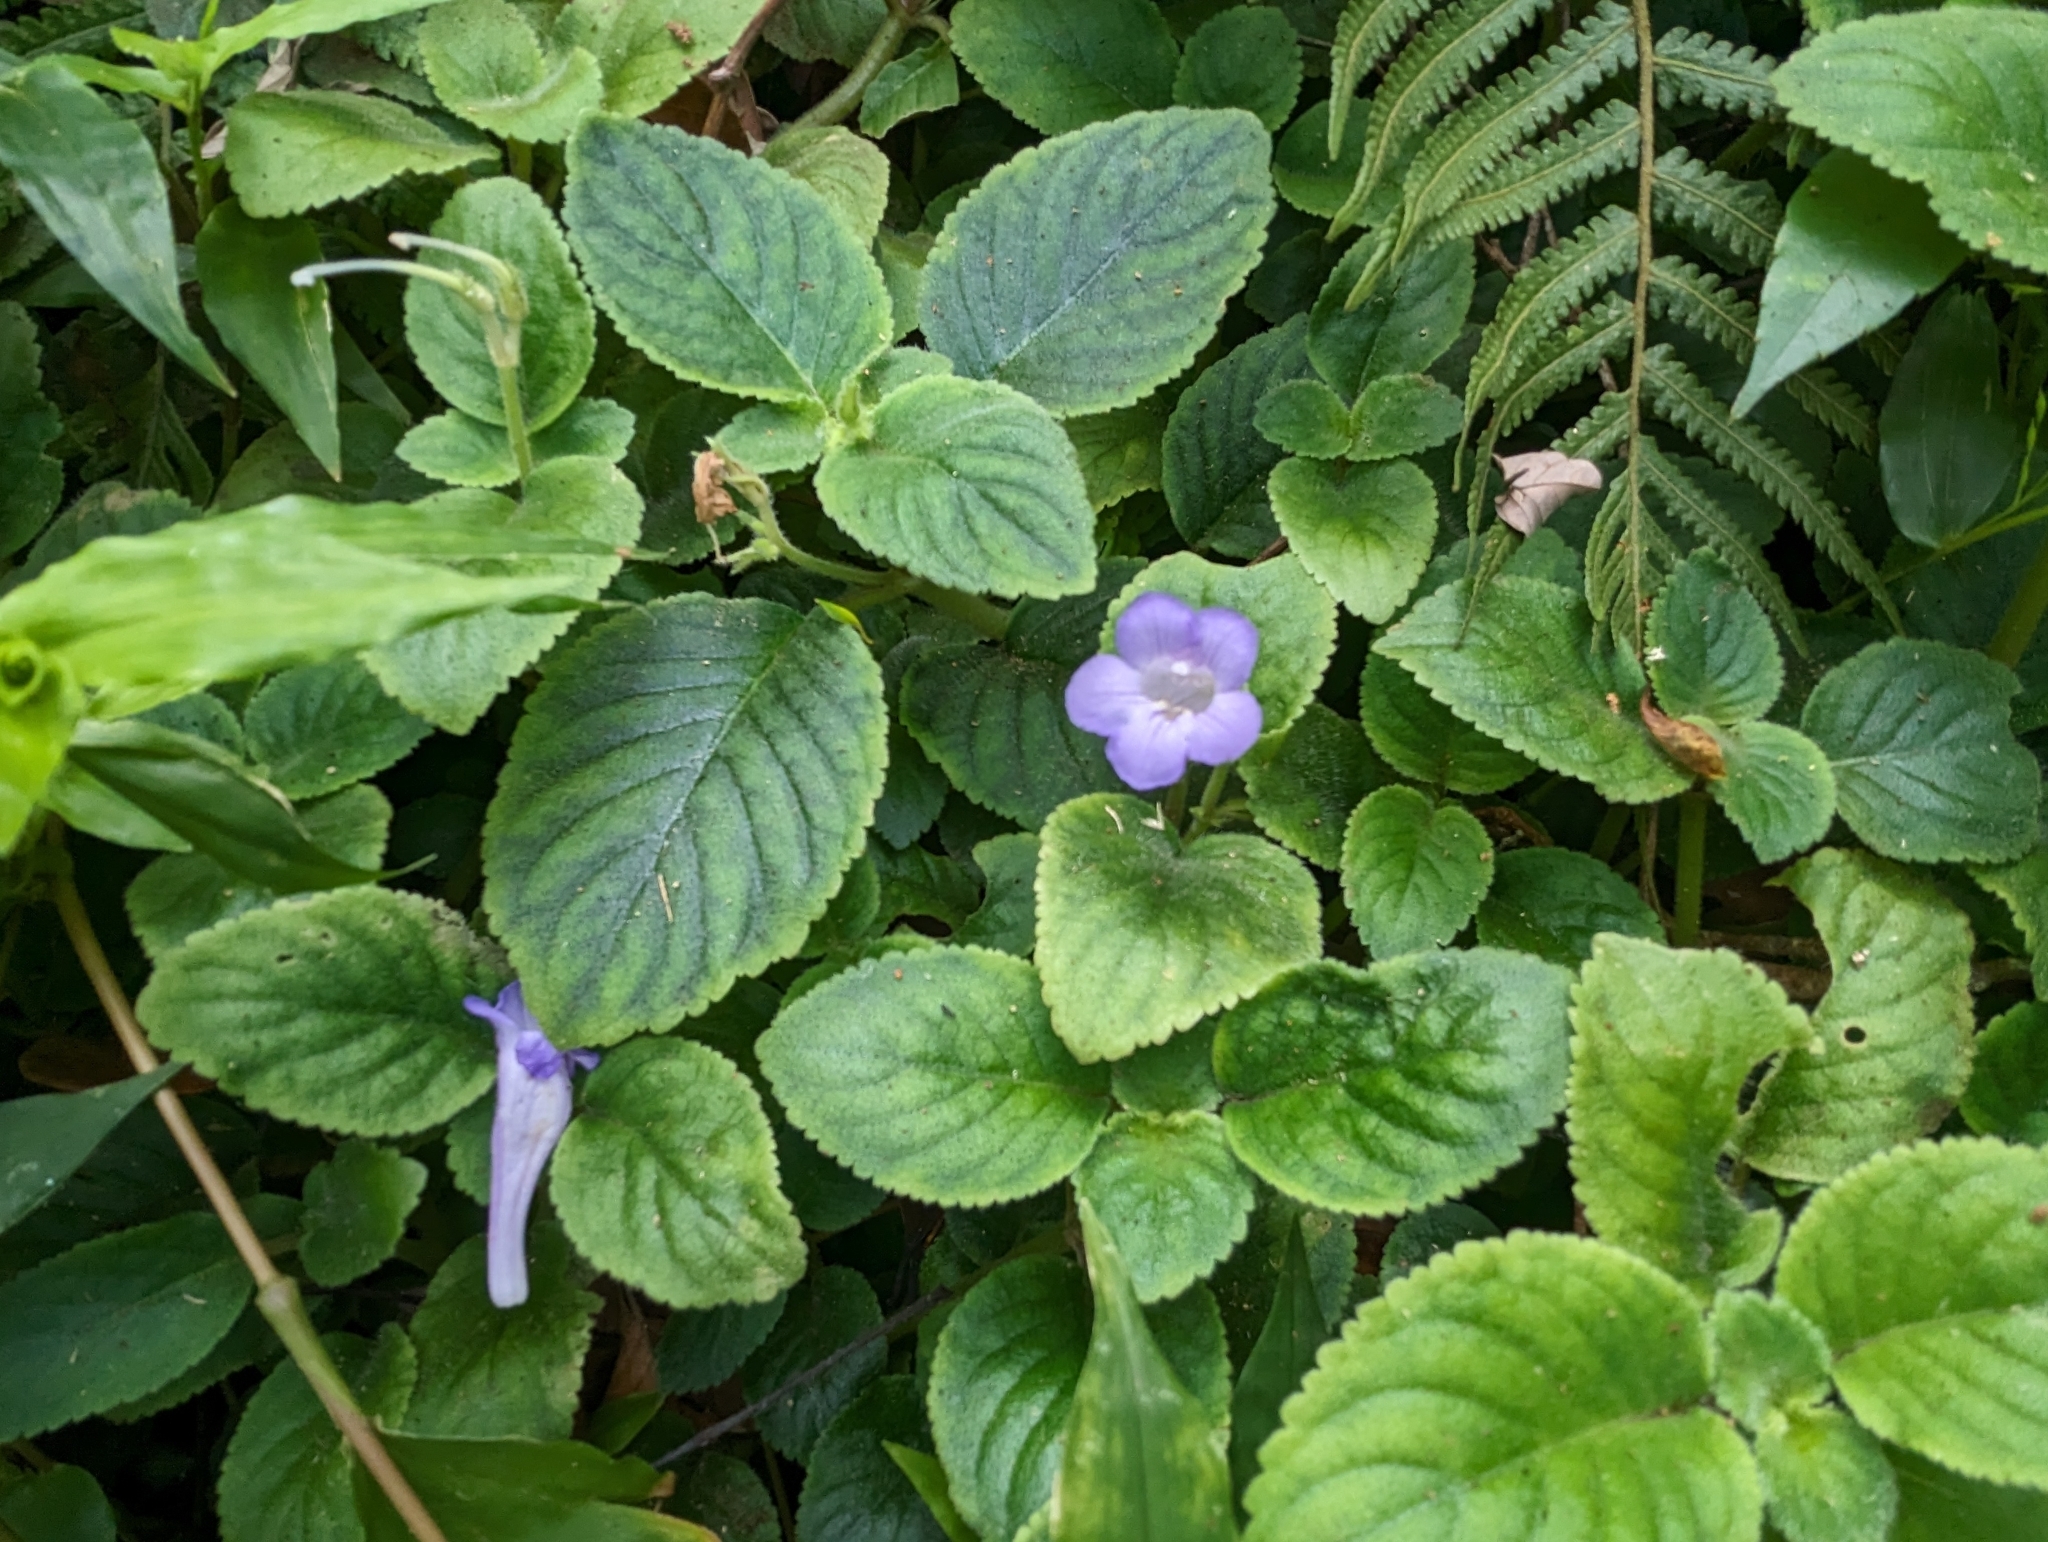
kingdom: Plantae
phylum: Tracheophyta
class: Magnoliopsida
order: Lamiales
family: Gesneriaceae
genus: Didymostigma
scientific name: Didymostigma obtusum
